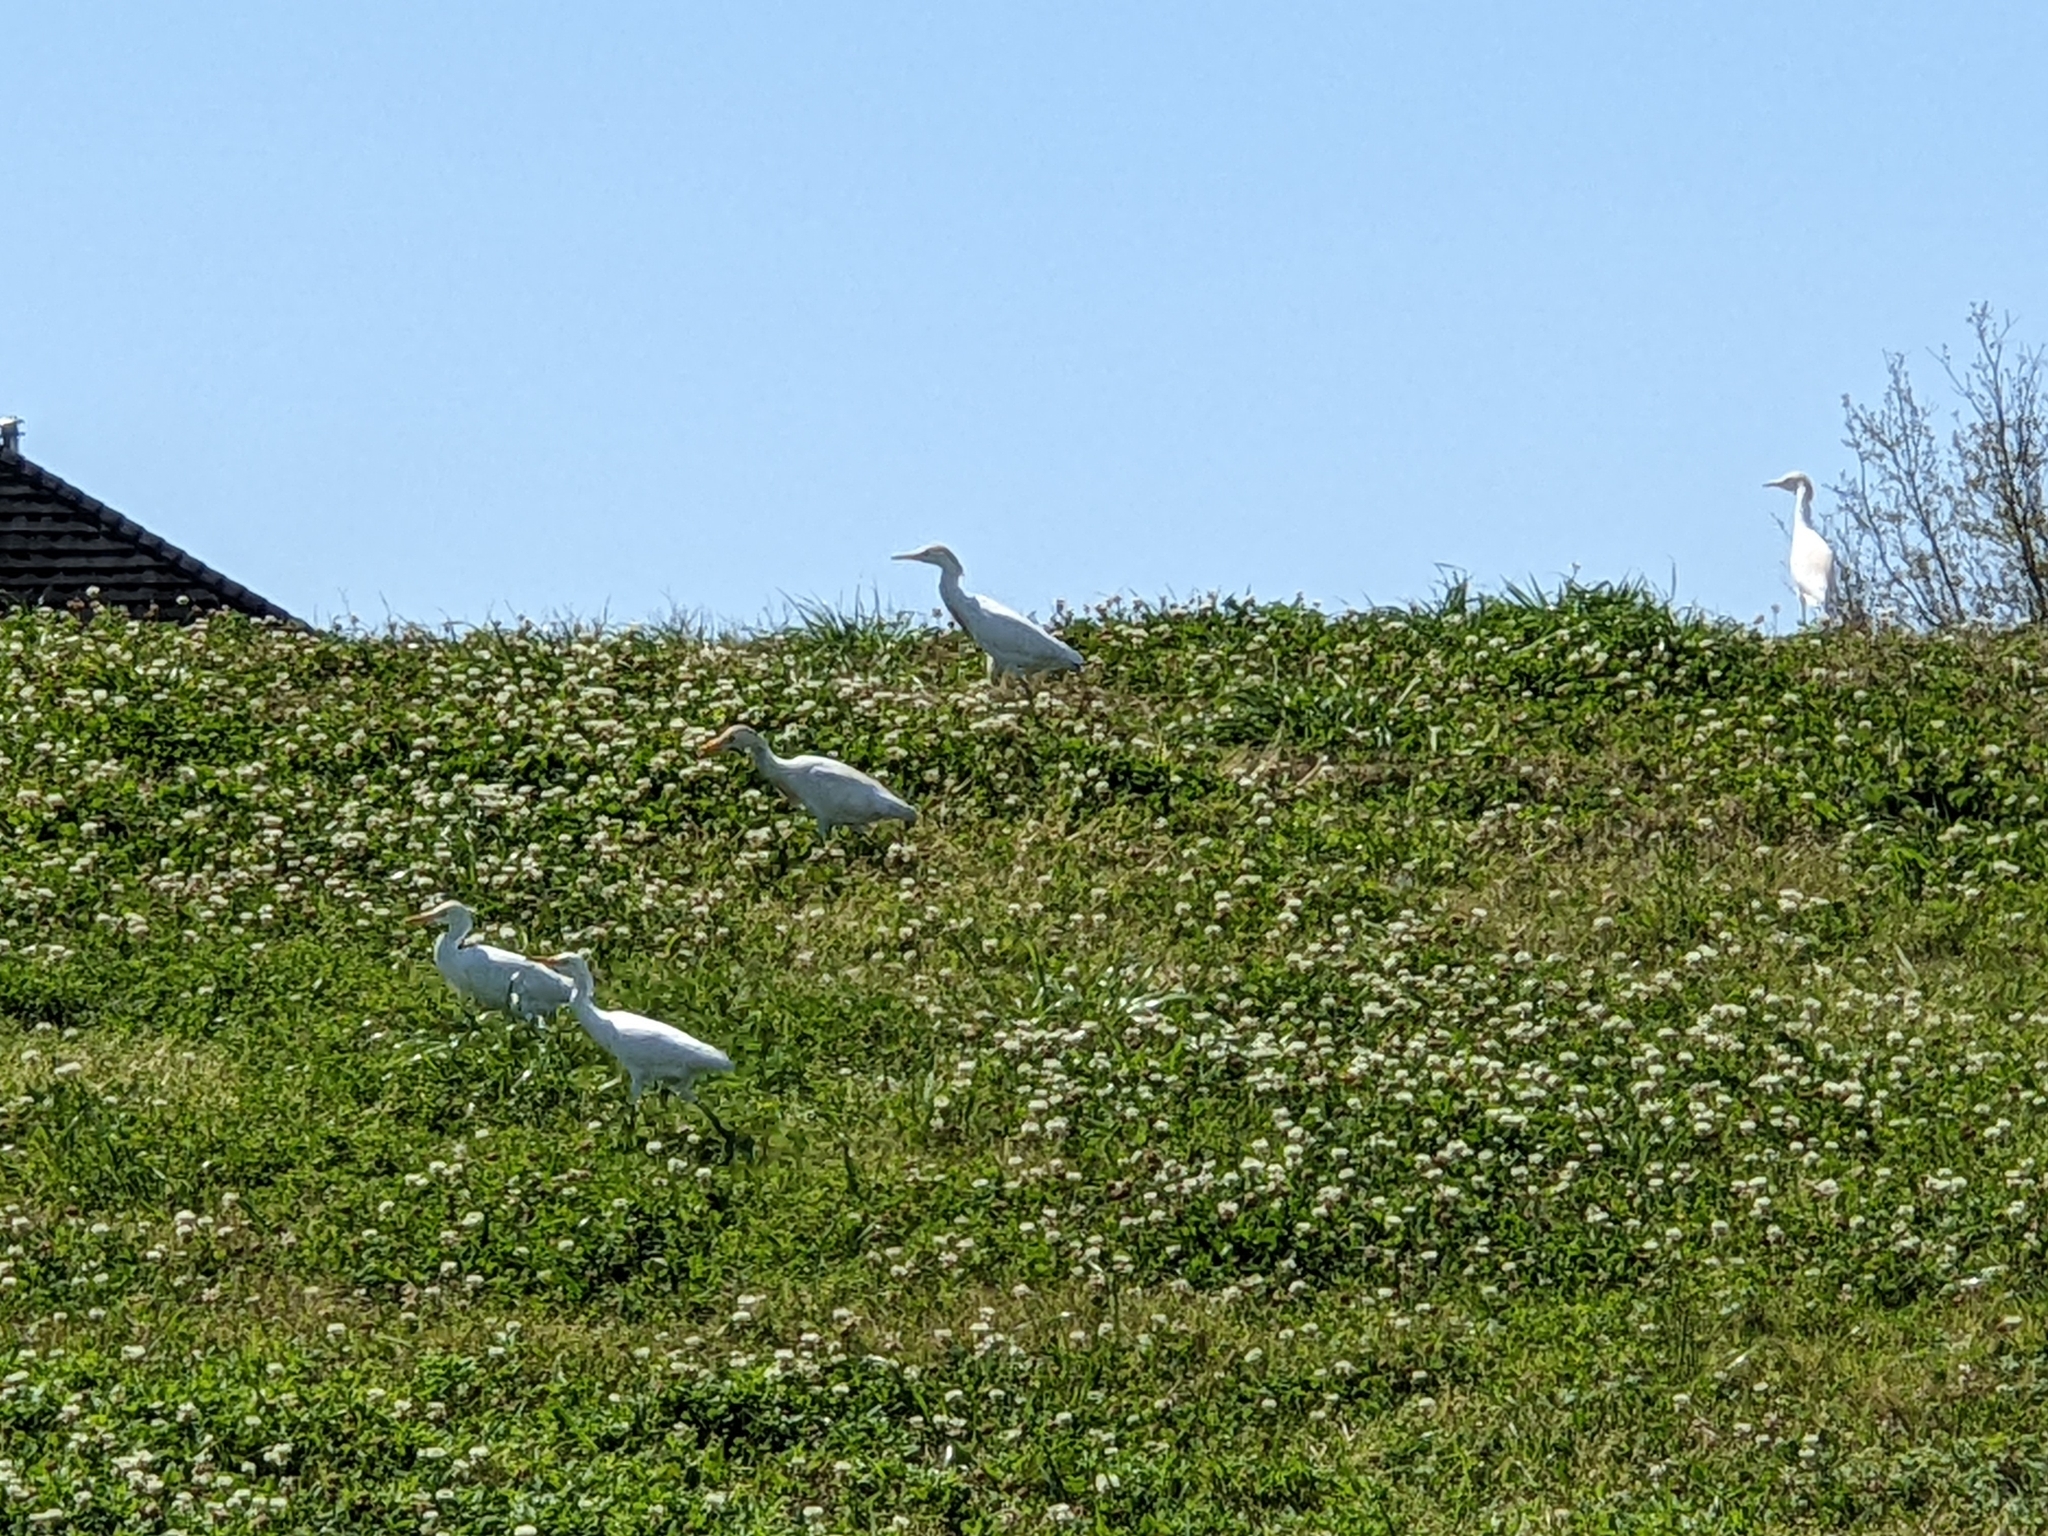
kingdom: Animalia
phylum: Chordata
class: Aves
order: Pelecaniformes
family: Ardeidae
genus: Bubulcus
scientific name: Bubulcus ibis
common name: Cattle egret
